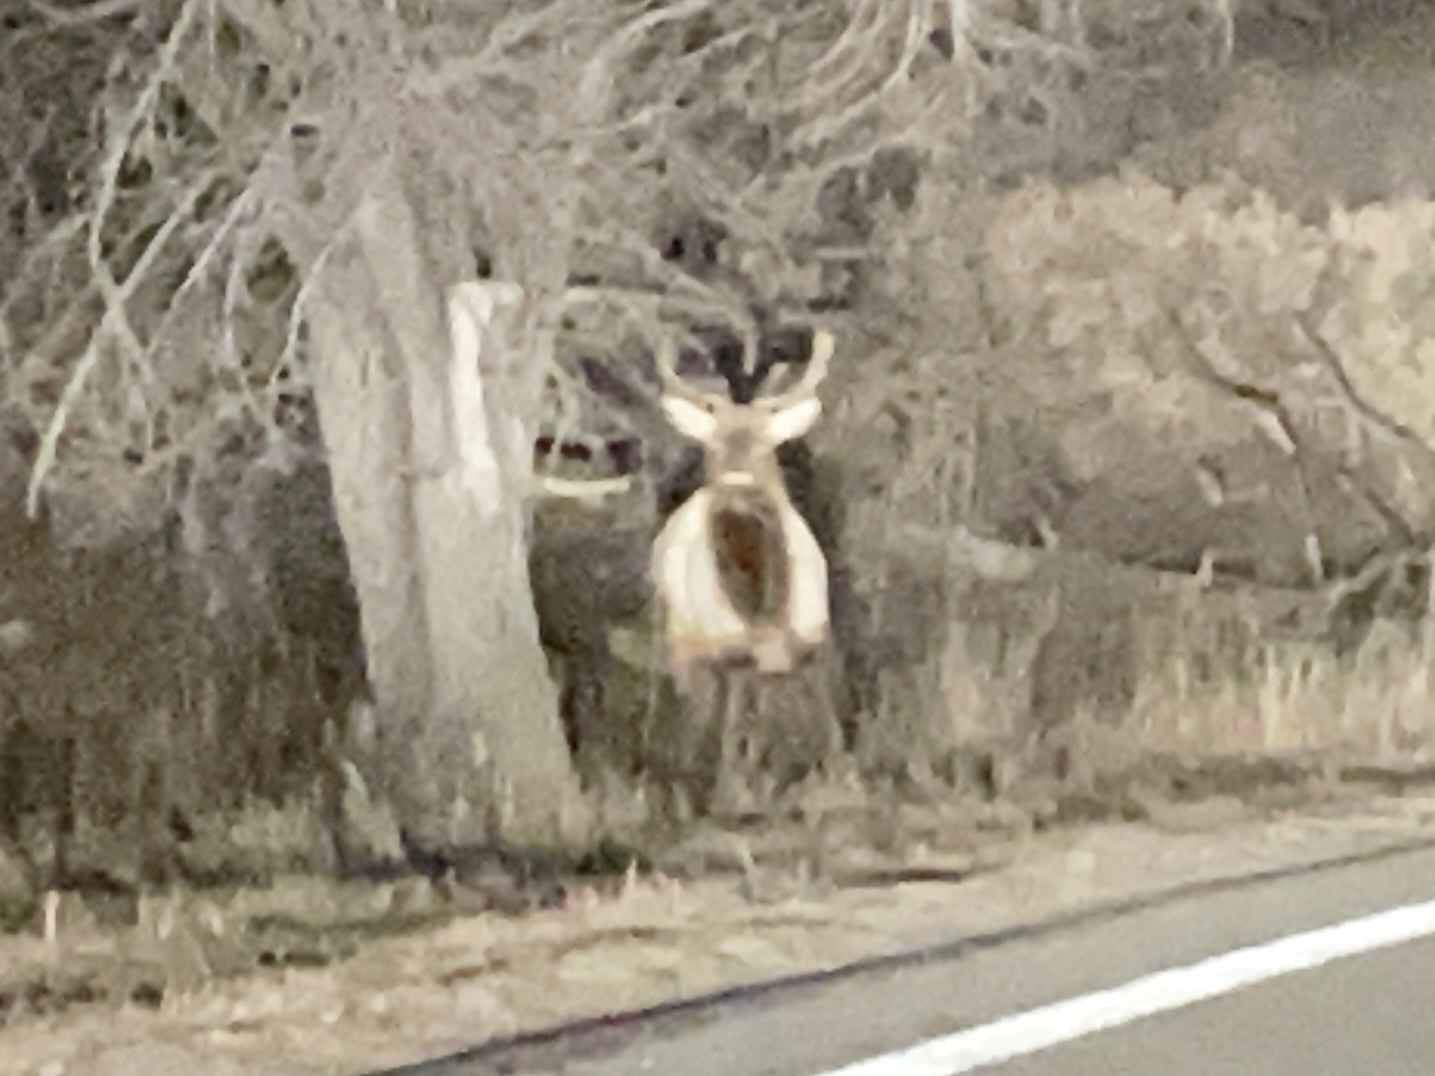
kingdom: Animalia
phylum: Chordata
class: Mammalia
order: Artiodactyla
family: Cervidae
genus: Cervus
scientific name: Cervus elaphus
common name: Red deer
